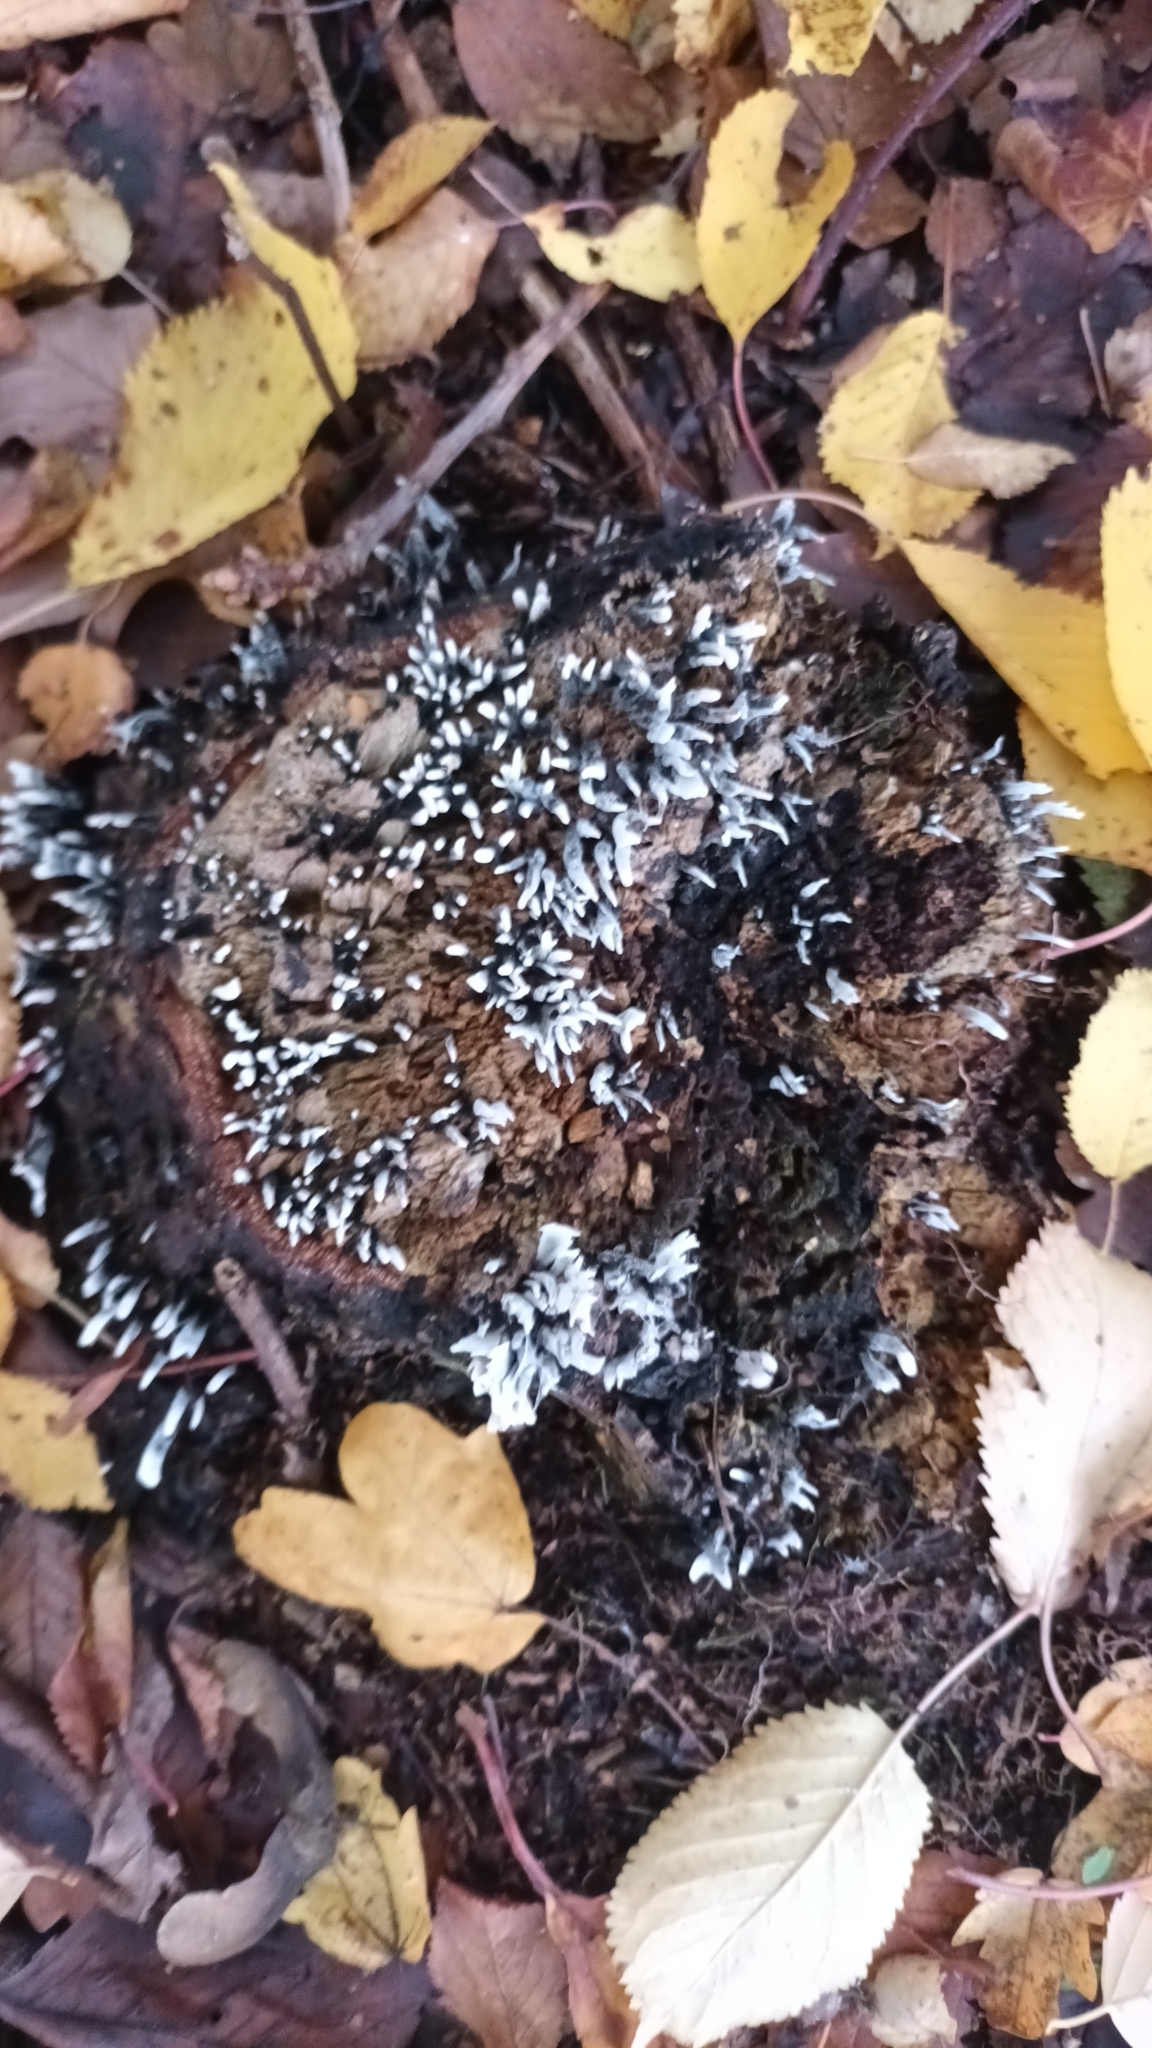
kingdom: Fungi
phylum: Ascomycota
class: Sordariomycetes
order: Xylariales
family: Xylariaceae
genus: Xylaria
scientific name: Xylaria hypoxylon
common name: Candle-snuff fungus
